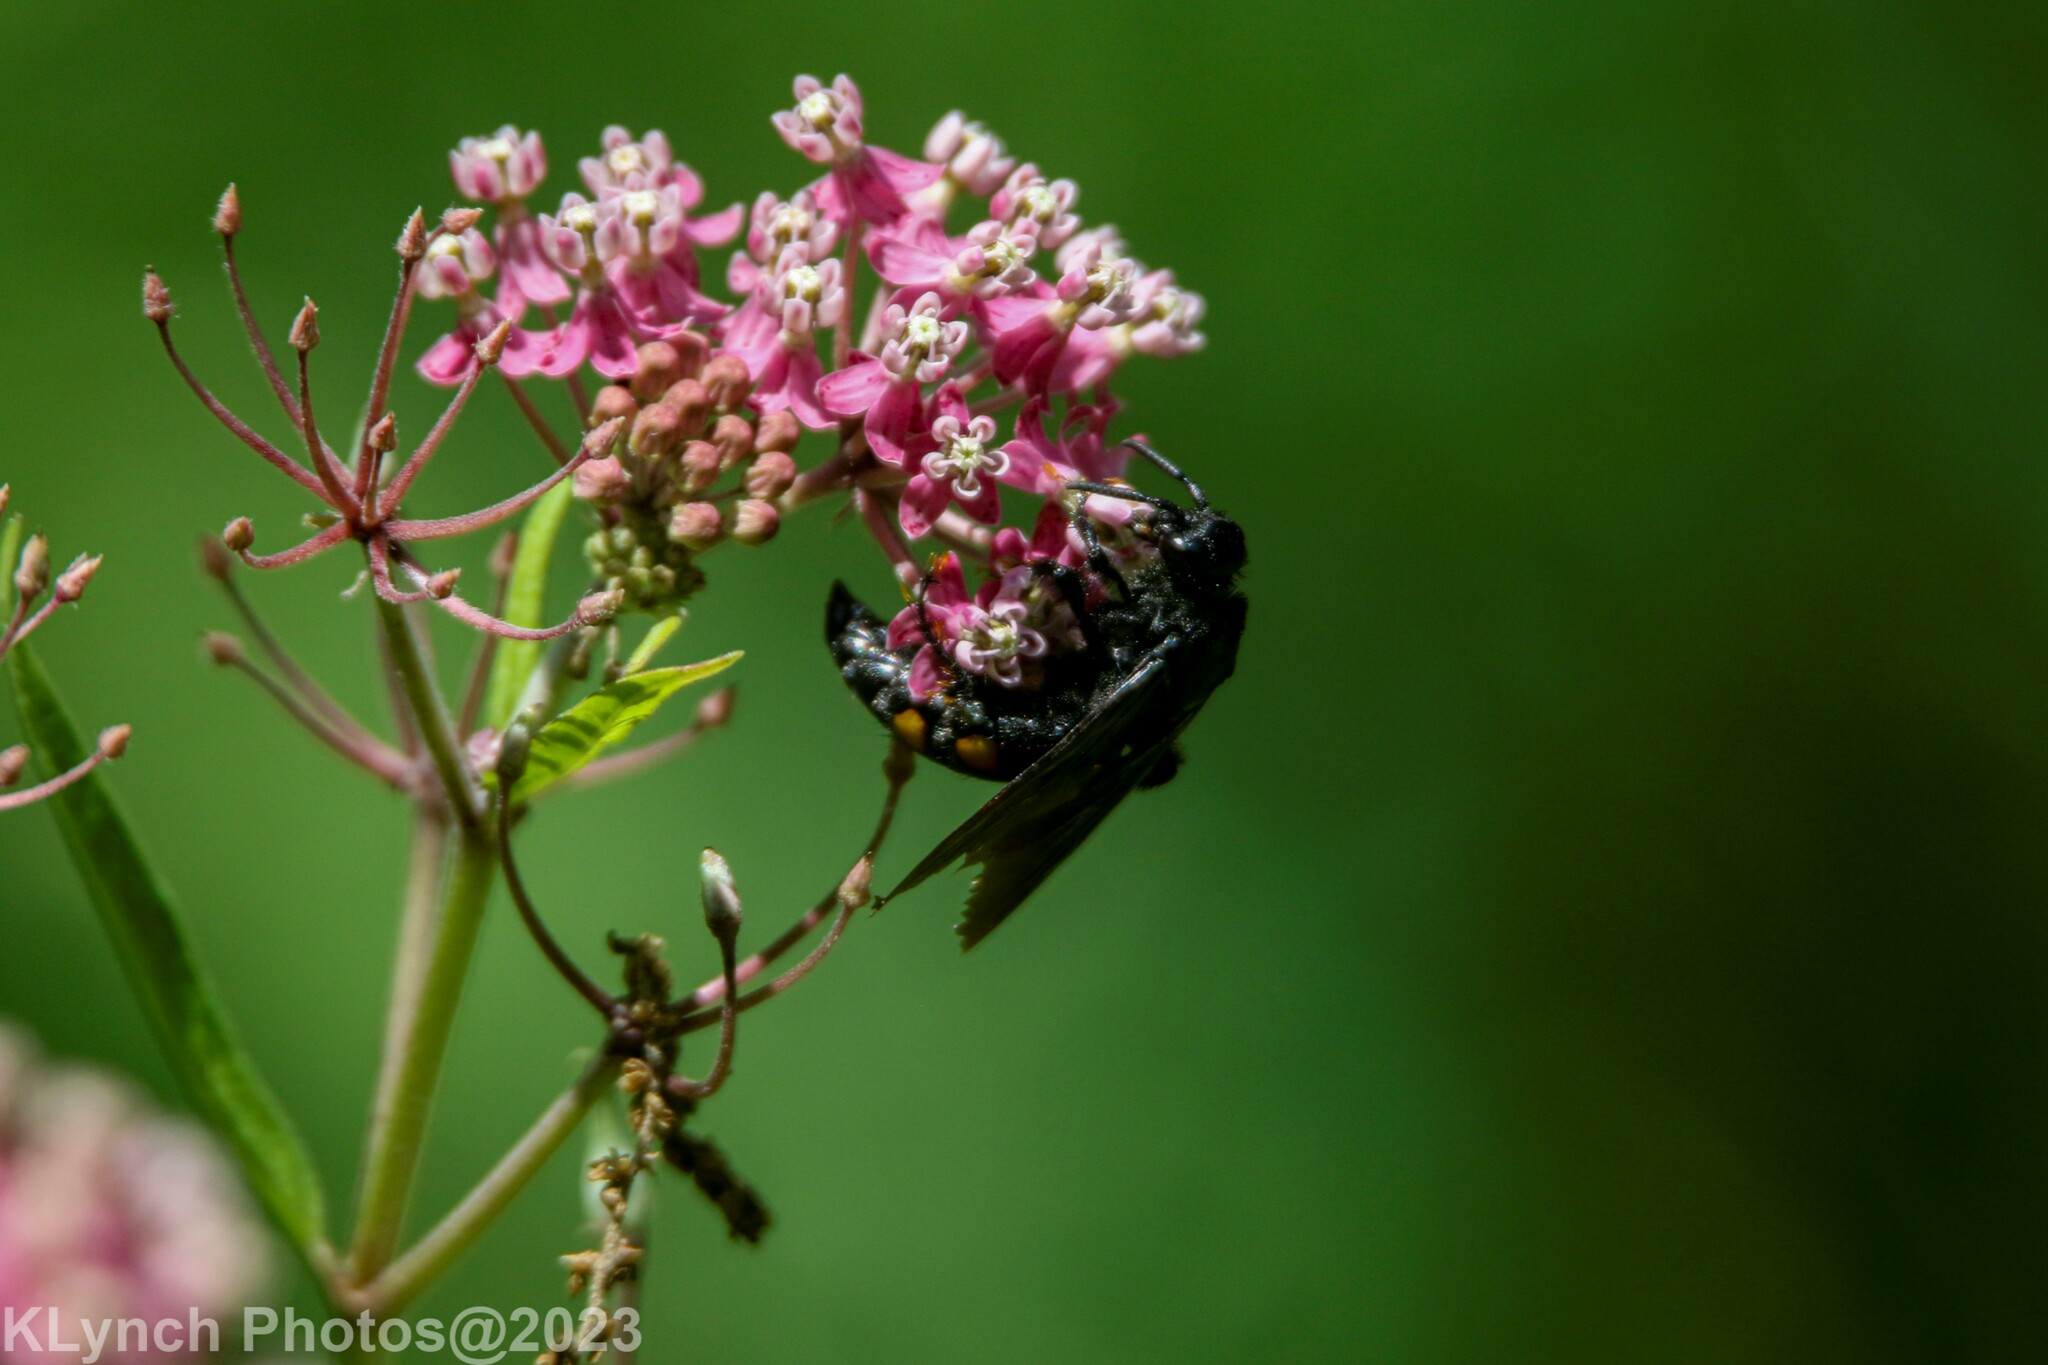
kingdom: Animalia
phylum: Arthropoda
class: Insecta
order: Hymenoptera
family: Scoliidae
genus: Pygodasis
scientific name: Pygodasis
